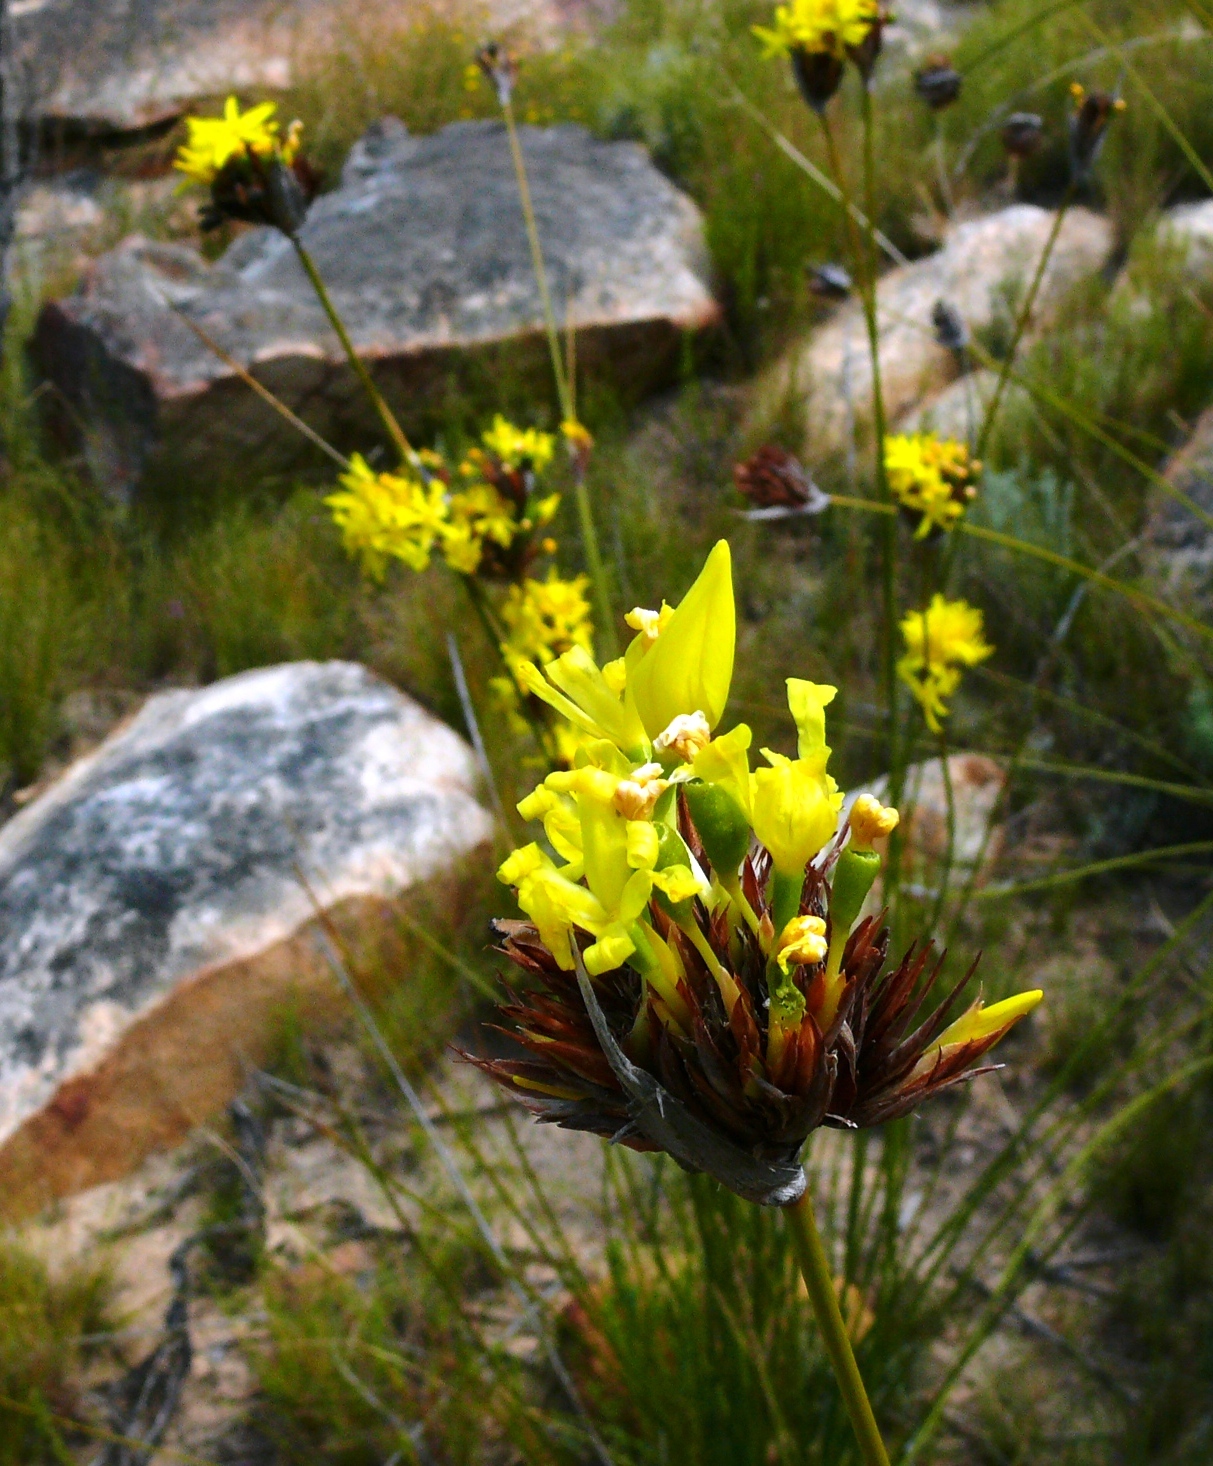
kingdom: Plantae
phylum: Tracheophyta
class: Liliopsida
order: Asparagales
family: Iridaceae
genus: Bobartia
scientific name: Bobartia rufa
